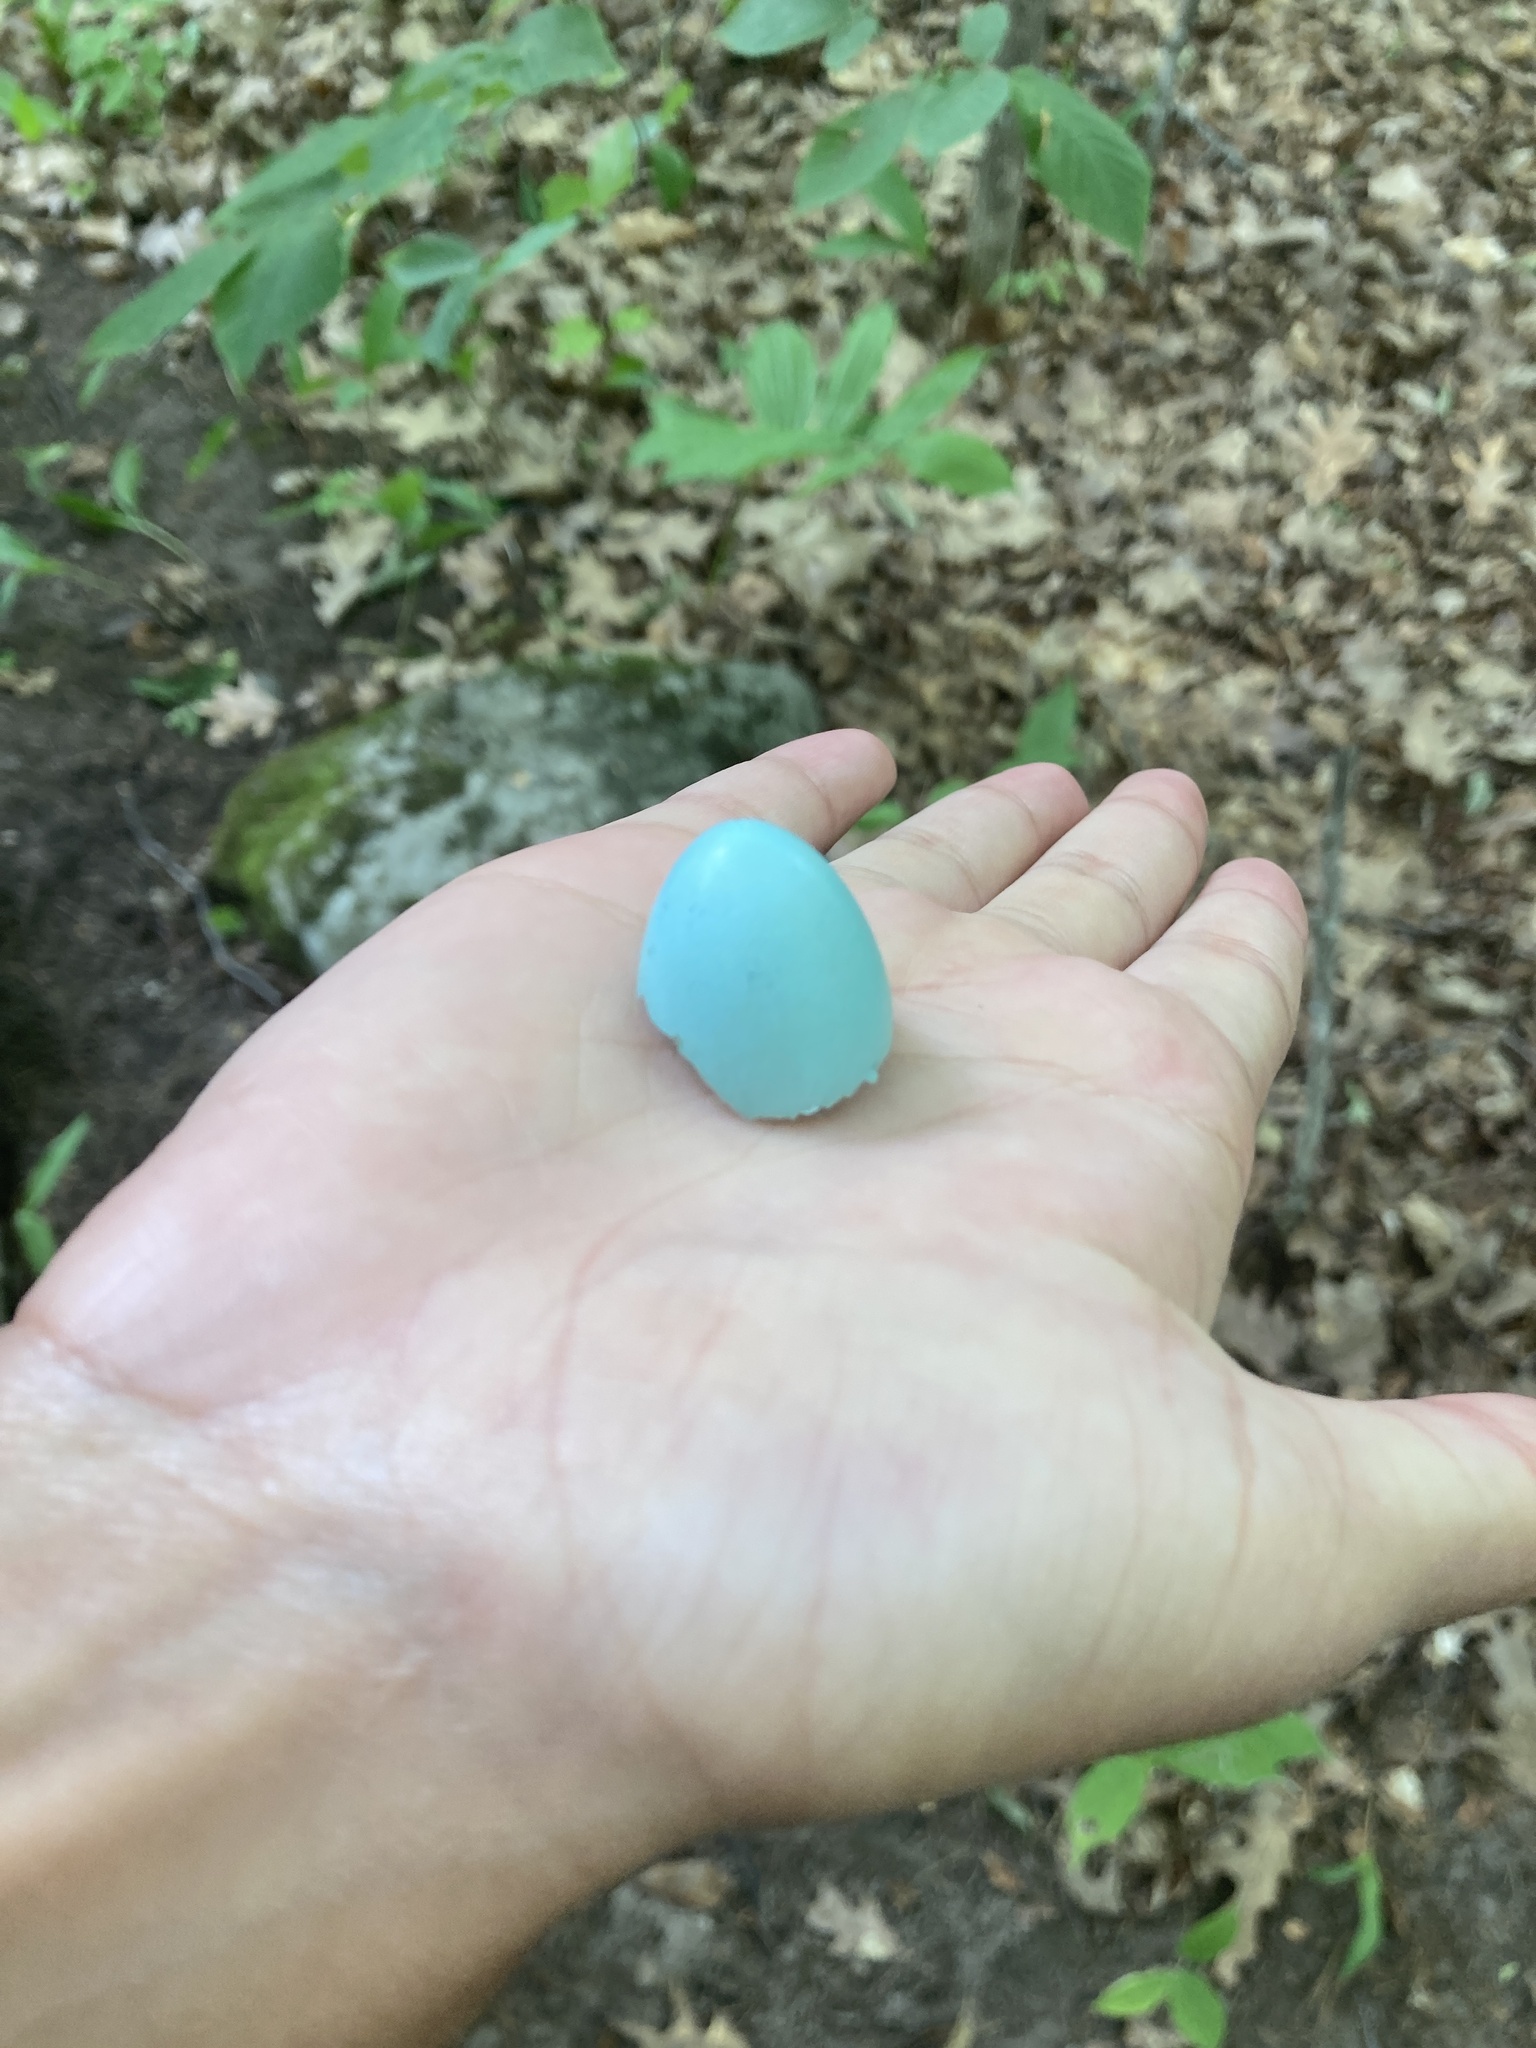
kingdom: Animalia
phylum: Chordata
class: Aves
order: Passeriformes
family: Turdidae
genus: Turdus
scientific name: Turdus migratorius
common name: American robin
